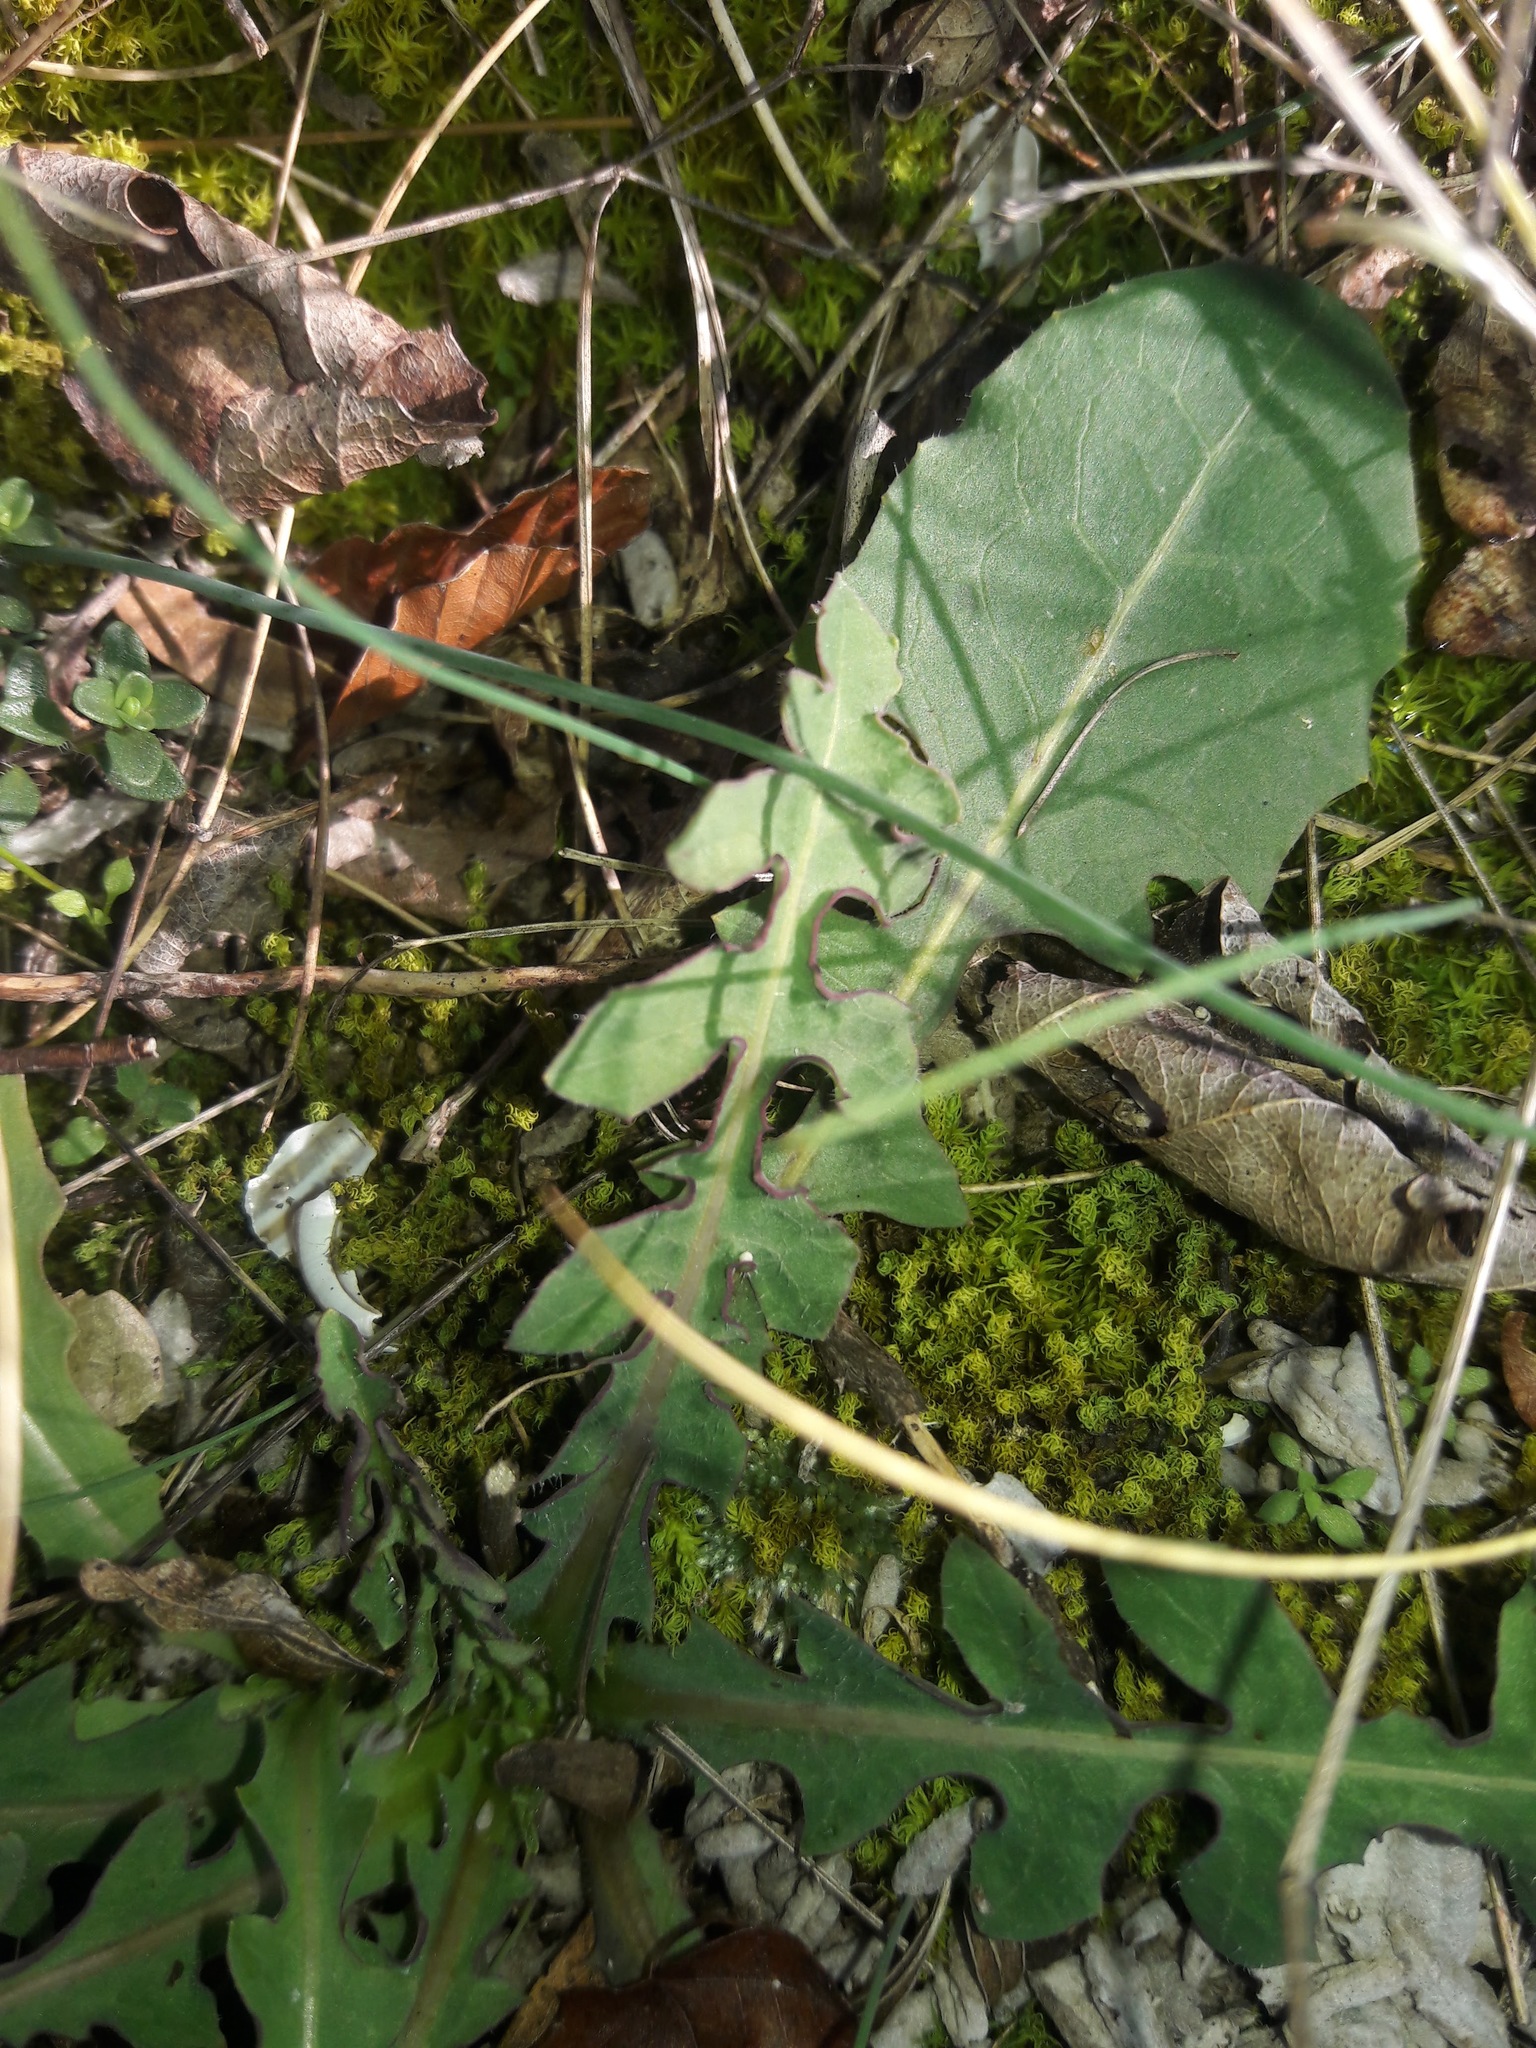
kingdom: Plantae
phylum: Tracheophyta
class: Magnoliopsida
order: Asterales
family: Asteraceae
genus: Lactuca
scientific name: Lactuca perennis
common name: Mountain lettuce
